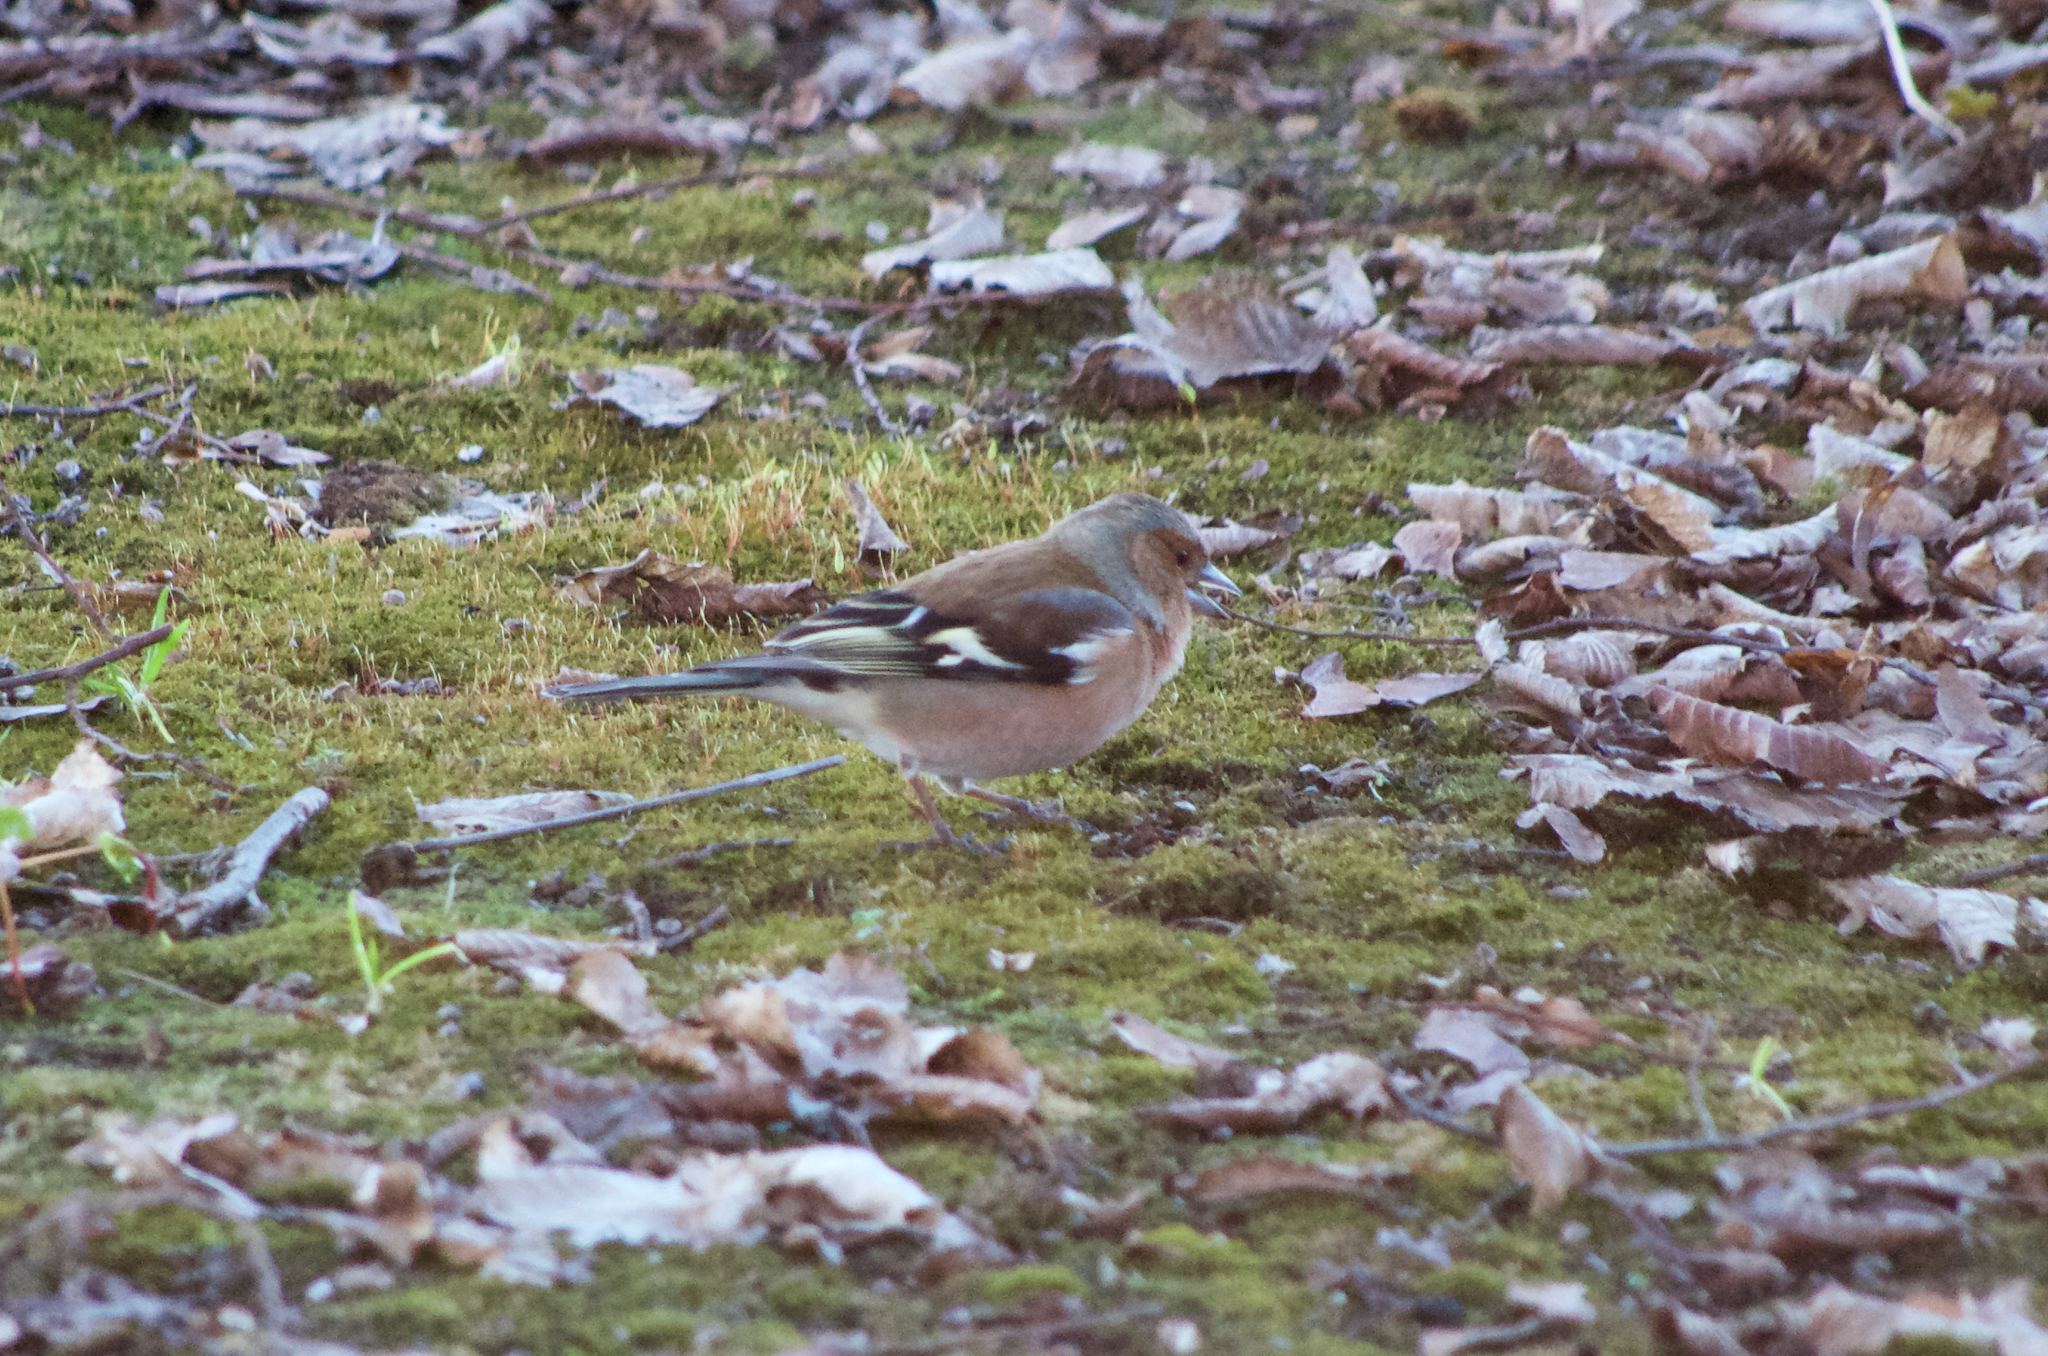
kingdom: Animalia
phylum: Chordata
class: Aves
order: Passeriformes
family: Fringillidae
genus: Fringilla
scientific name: Fringilla coelebs
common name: Common chaffinch
